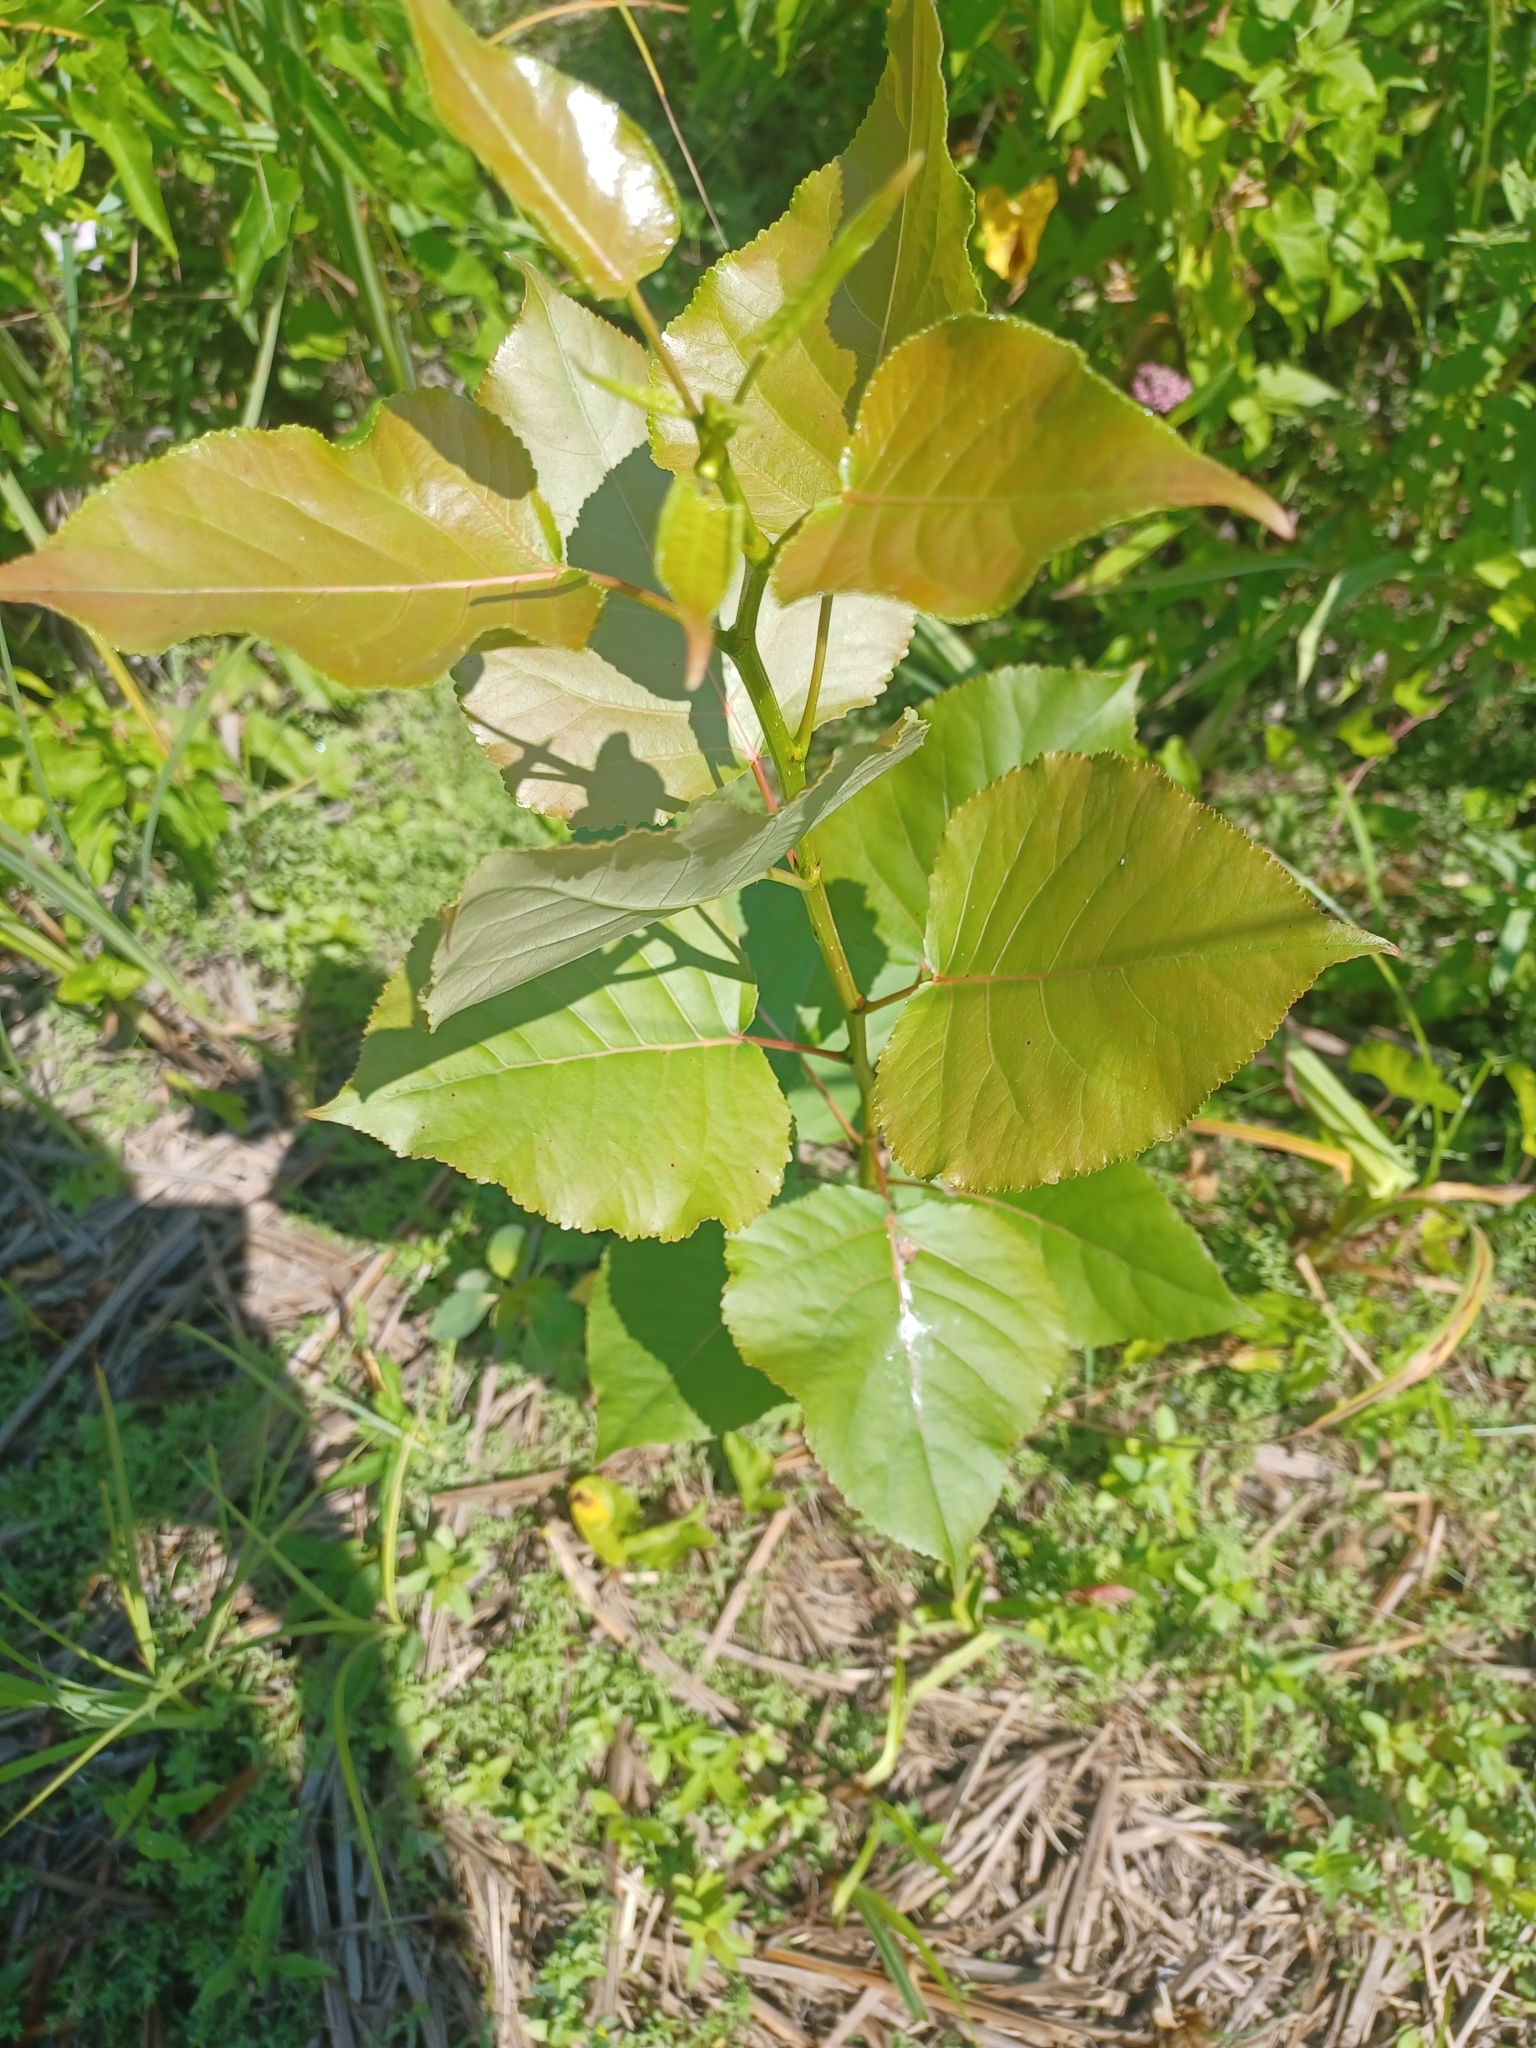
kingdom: Plantae
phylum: Tracheophyta
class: Magnoliopsida
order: Malpighiales
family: Salicaceae
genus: Populus
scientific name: Populus nigra
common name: Black poplar
